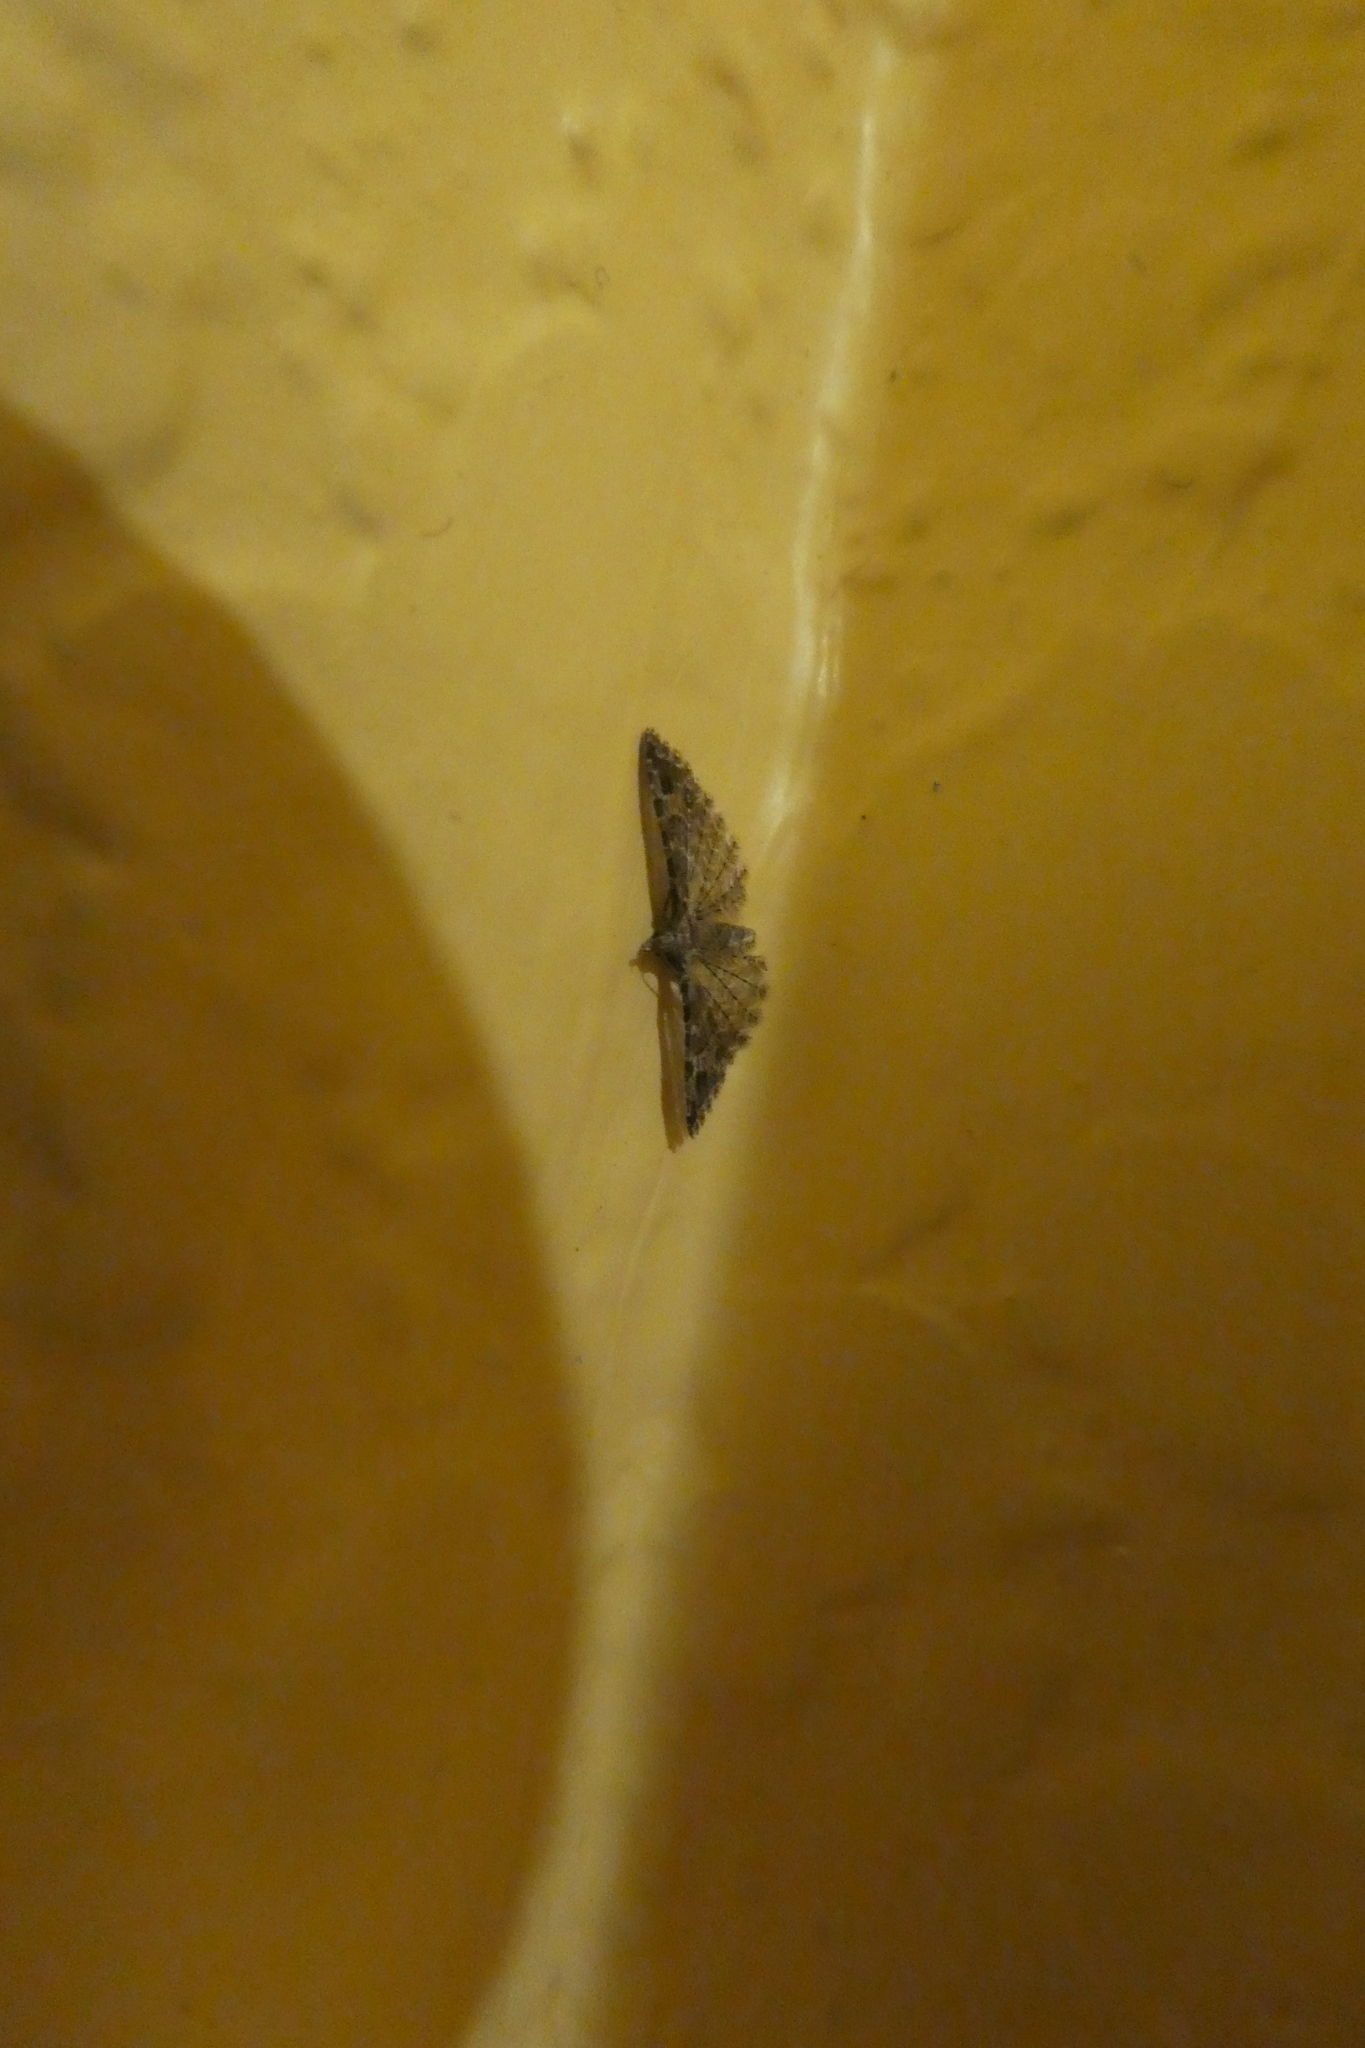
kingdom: Animalia
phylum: Arthropoda
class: Insecta
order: Lepidoptera
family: Alucitidae
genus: Alucita
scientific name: Alucita montana
